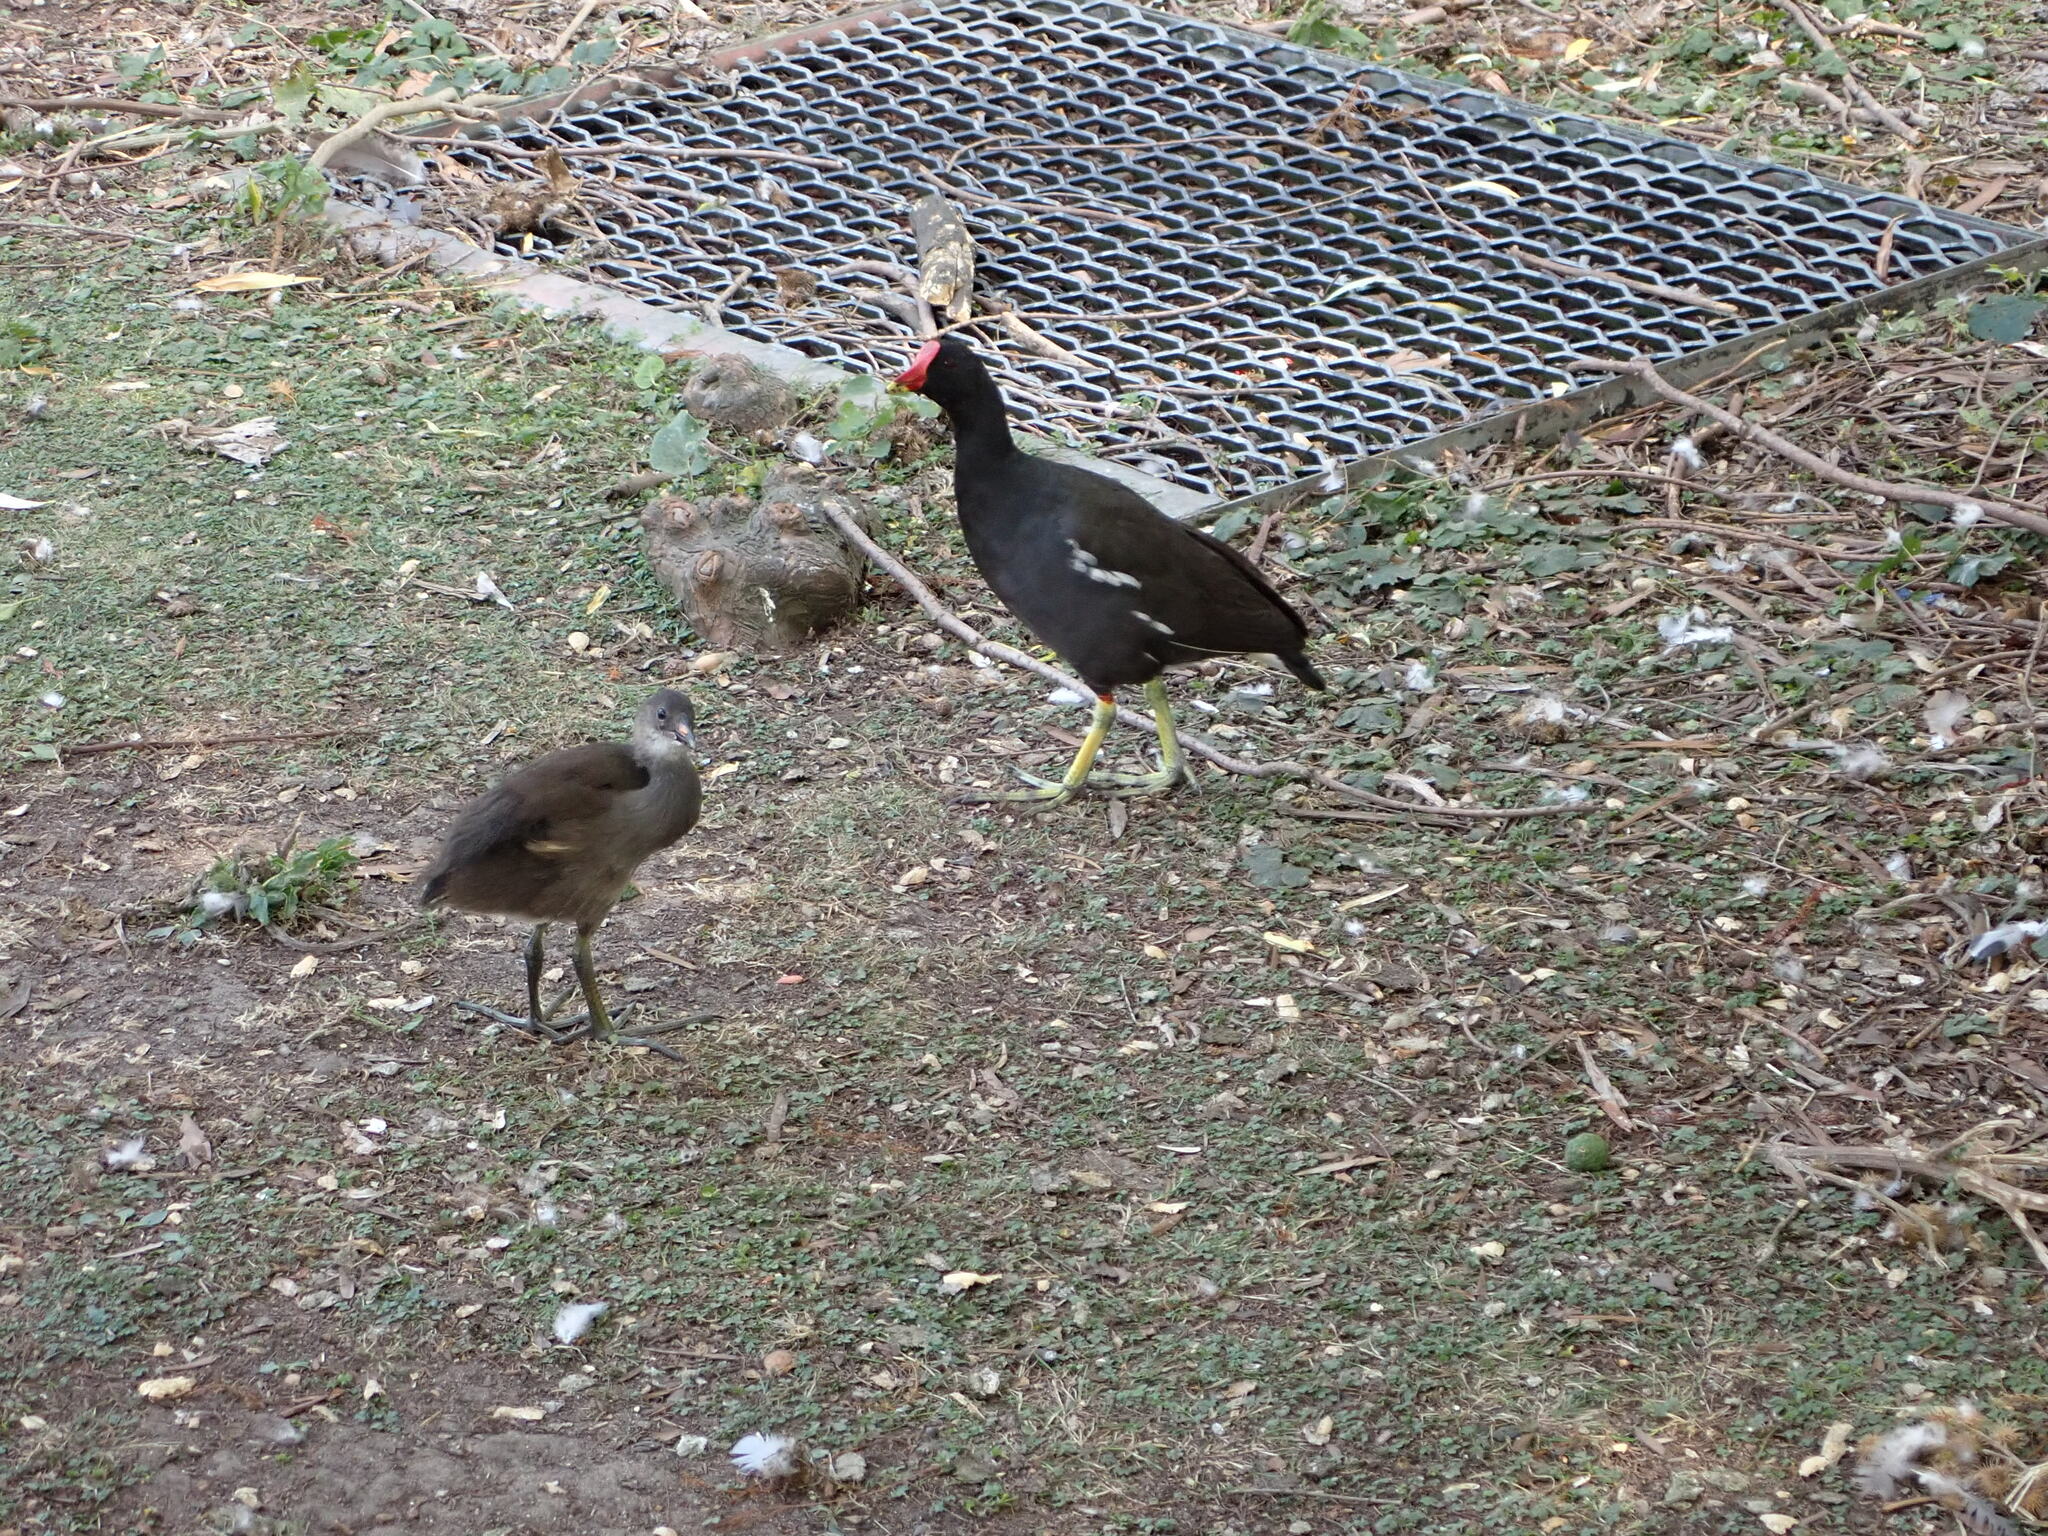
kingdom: Animalia
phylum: Chordata
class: Aves
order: Gruiformes
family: Rallidae
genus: Gallinula
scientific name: Gallinula chloropus
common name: Common moorhen
